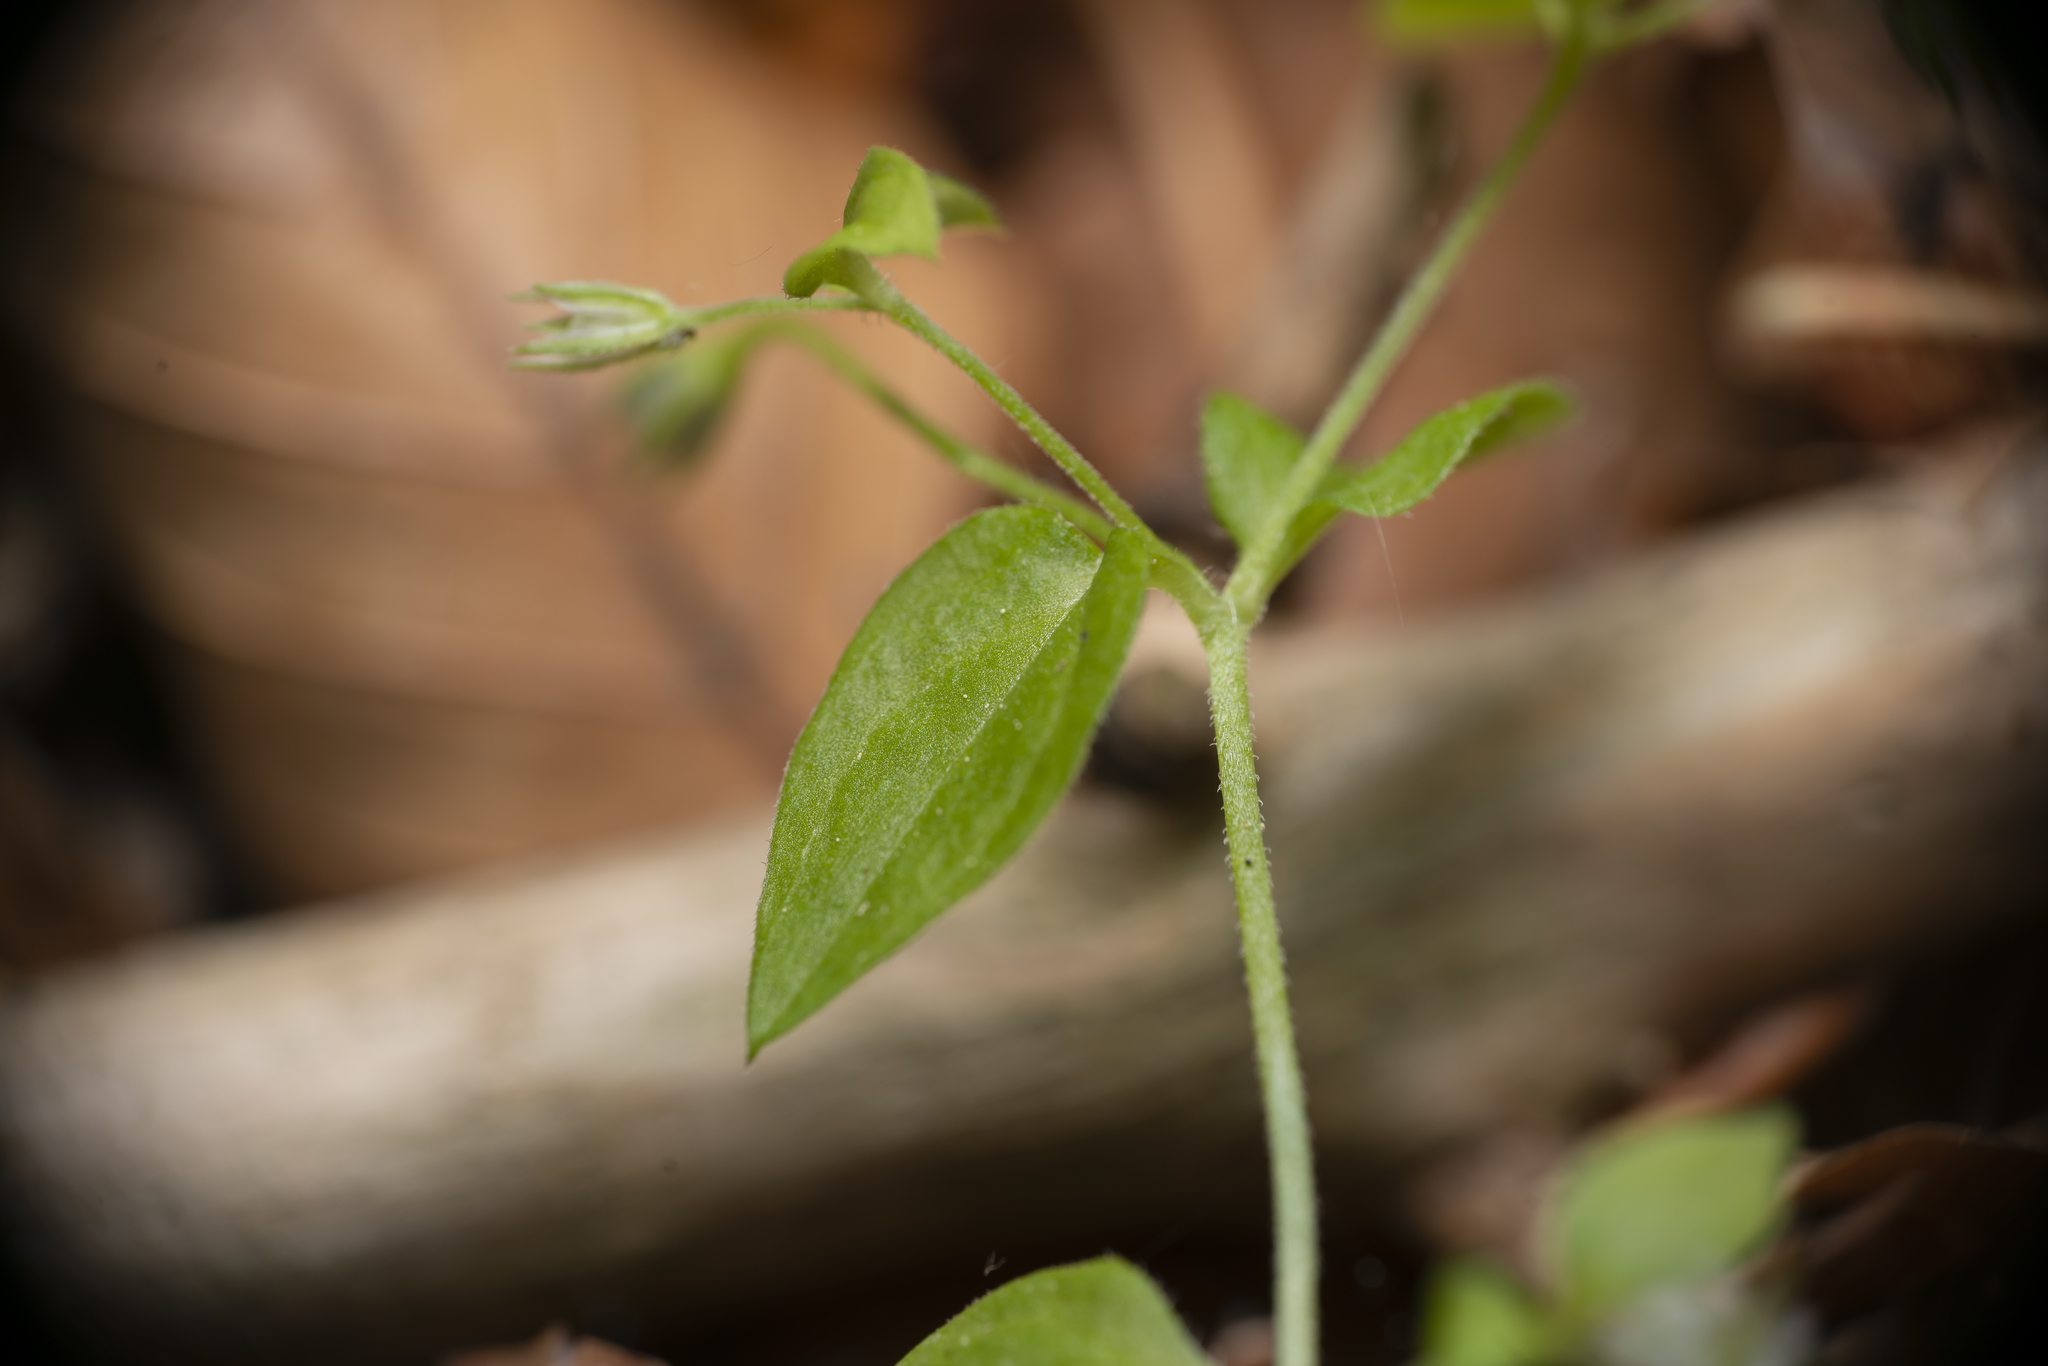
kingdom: Plantae
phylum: Tracheophyta
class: Magnoliopsida
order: Caryophyllales
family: Caryophyllaceae
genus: Moehringia
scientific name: Moehringia trinervia
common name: Three-nerved sandwort
